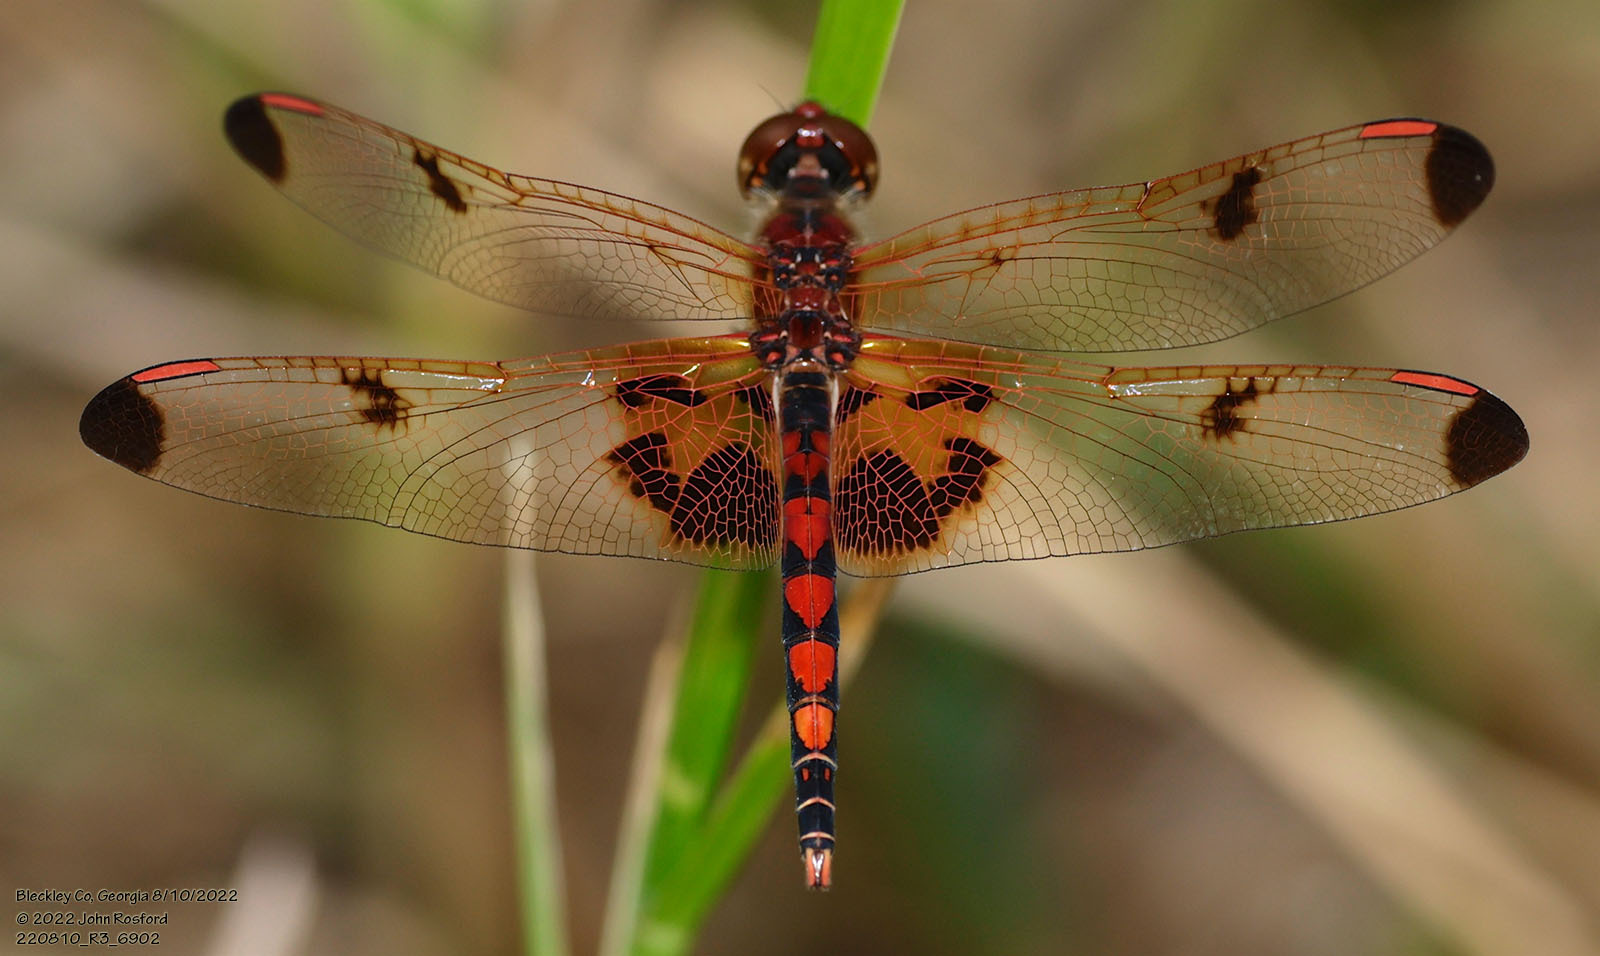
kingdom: Animalia
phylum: Arthropoda
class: Insecta
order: Odonata
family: Libellulidae
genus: Celithemis
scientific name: Celithemis elisa
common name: Calico pennant
